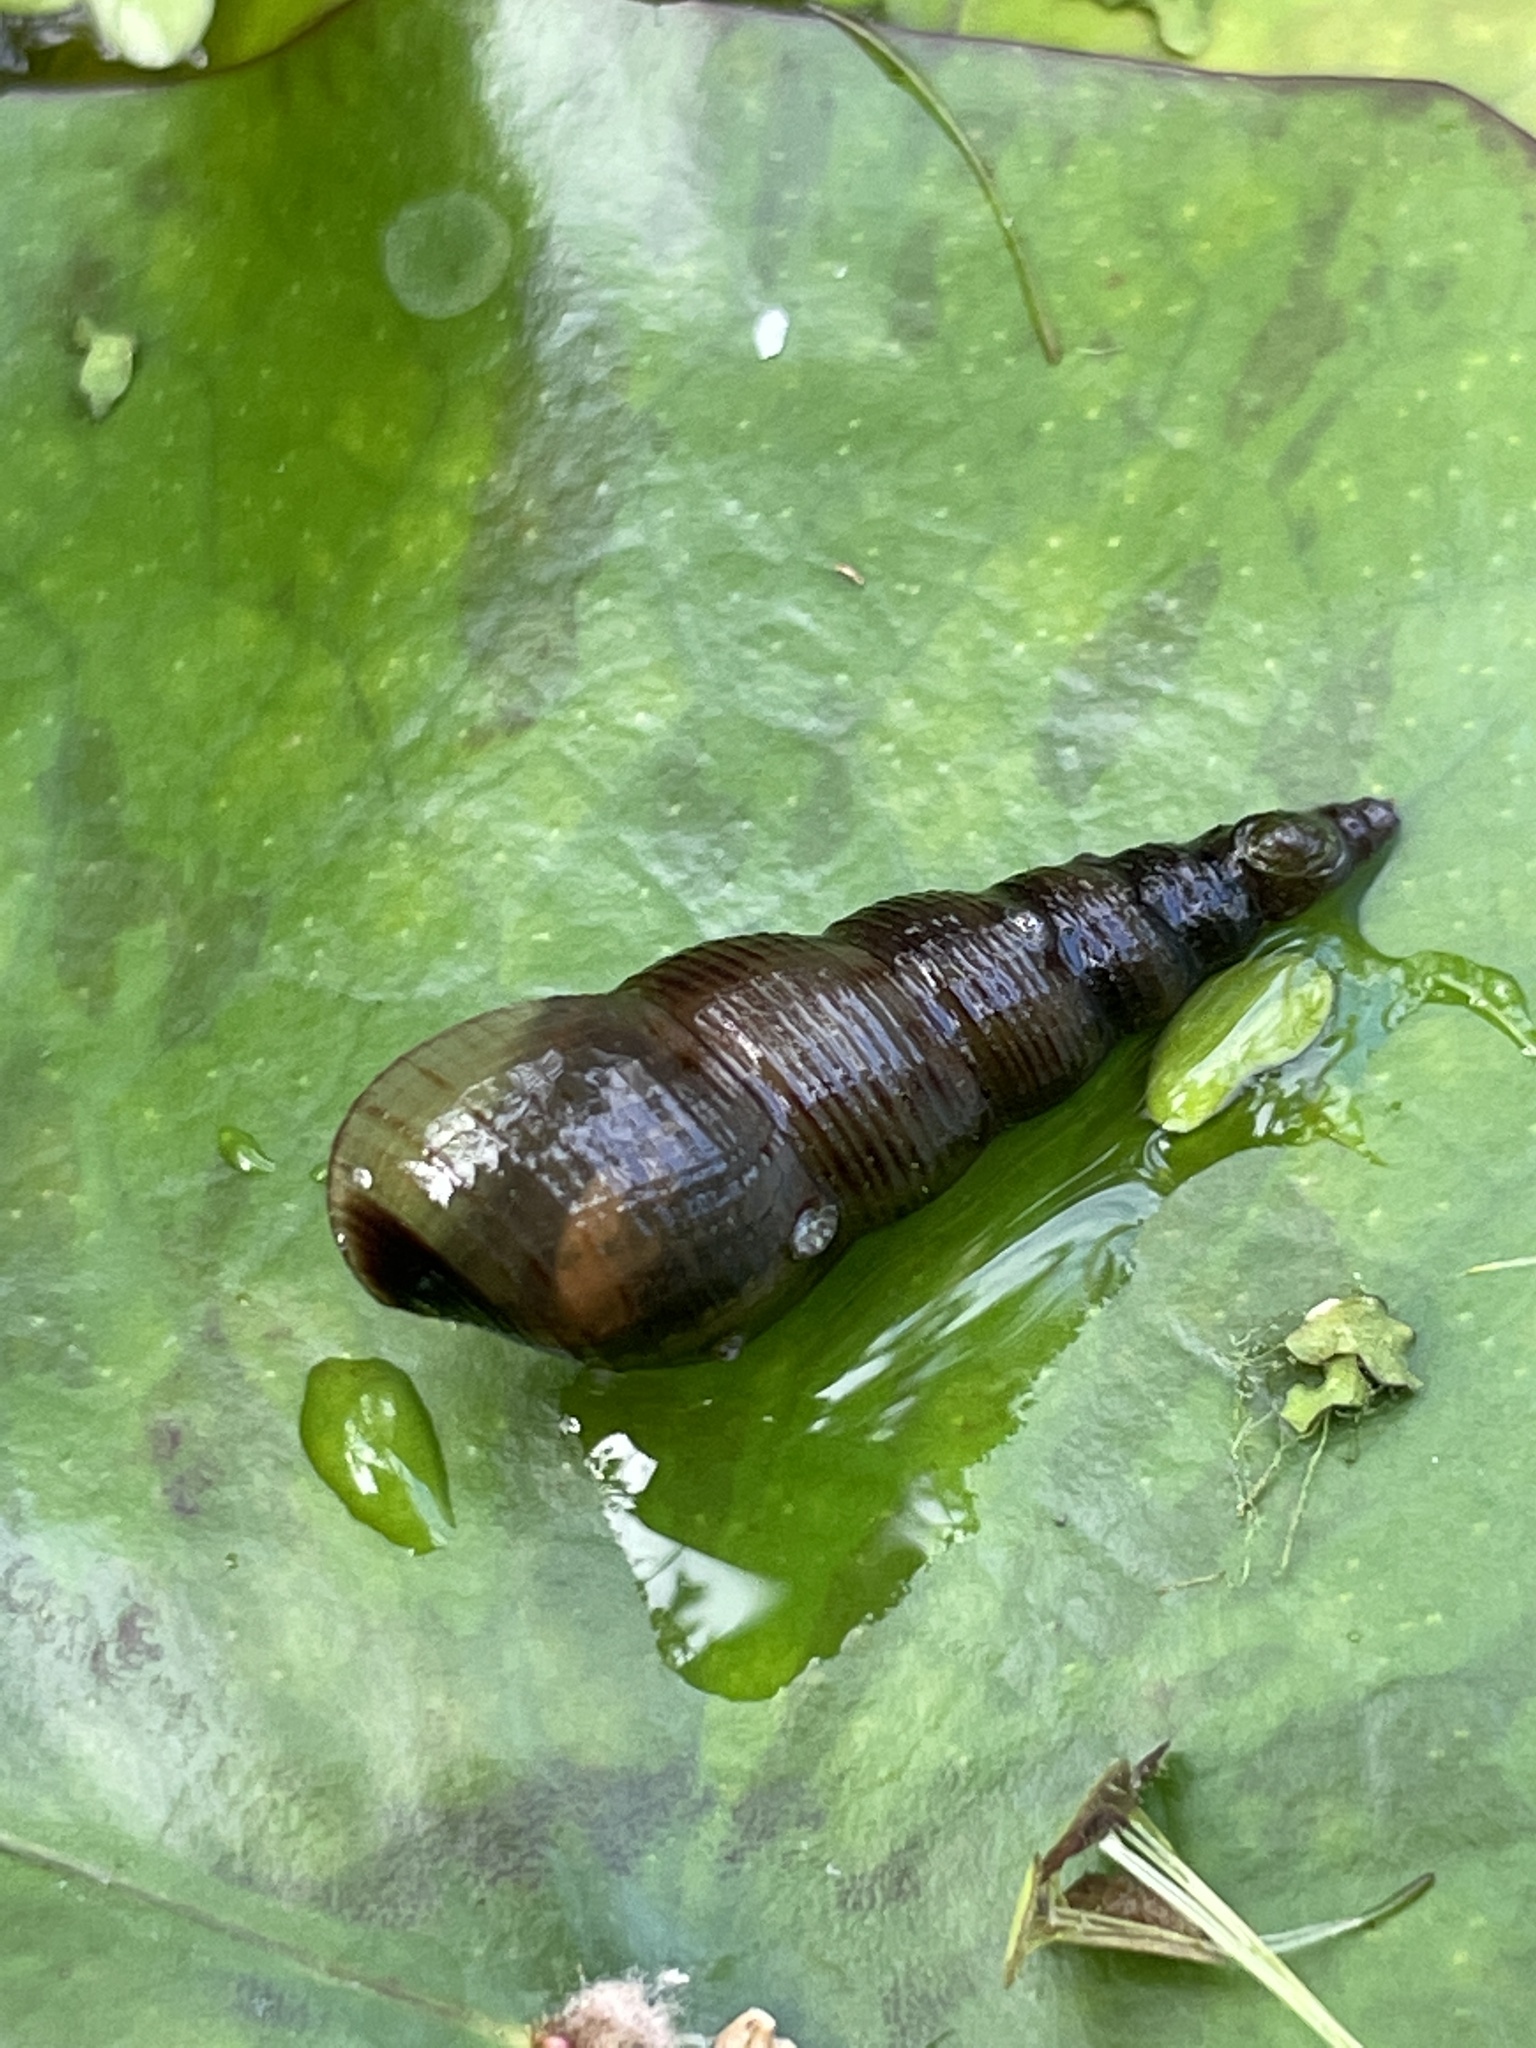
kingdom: Animalia
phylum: Mollusca
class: Gastropoda
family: Thiaridae
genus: Melanoides
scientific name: Melanoides tuberculata
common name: Red-rim melania
